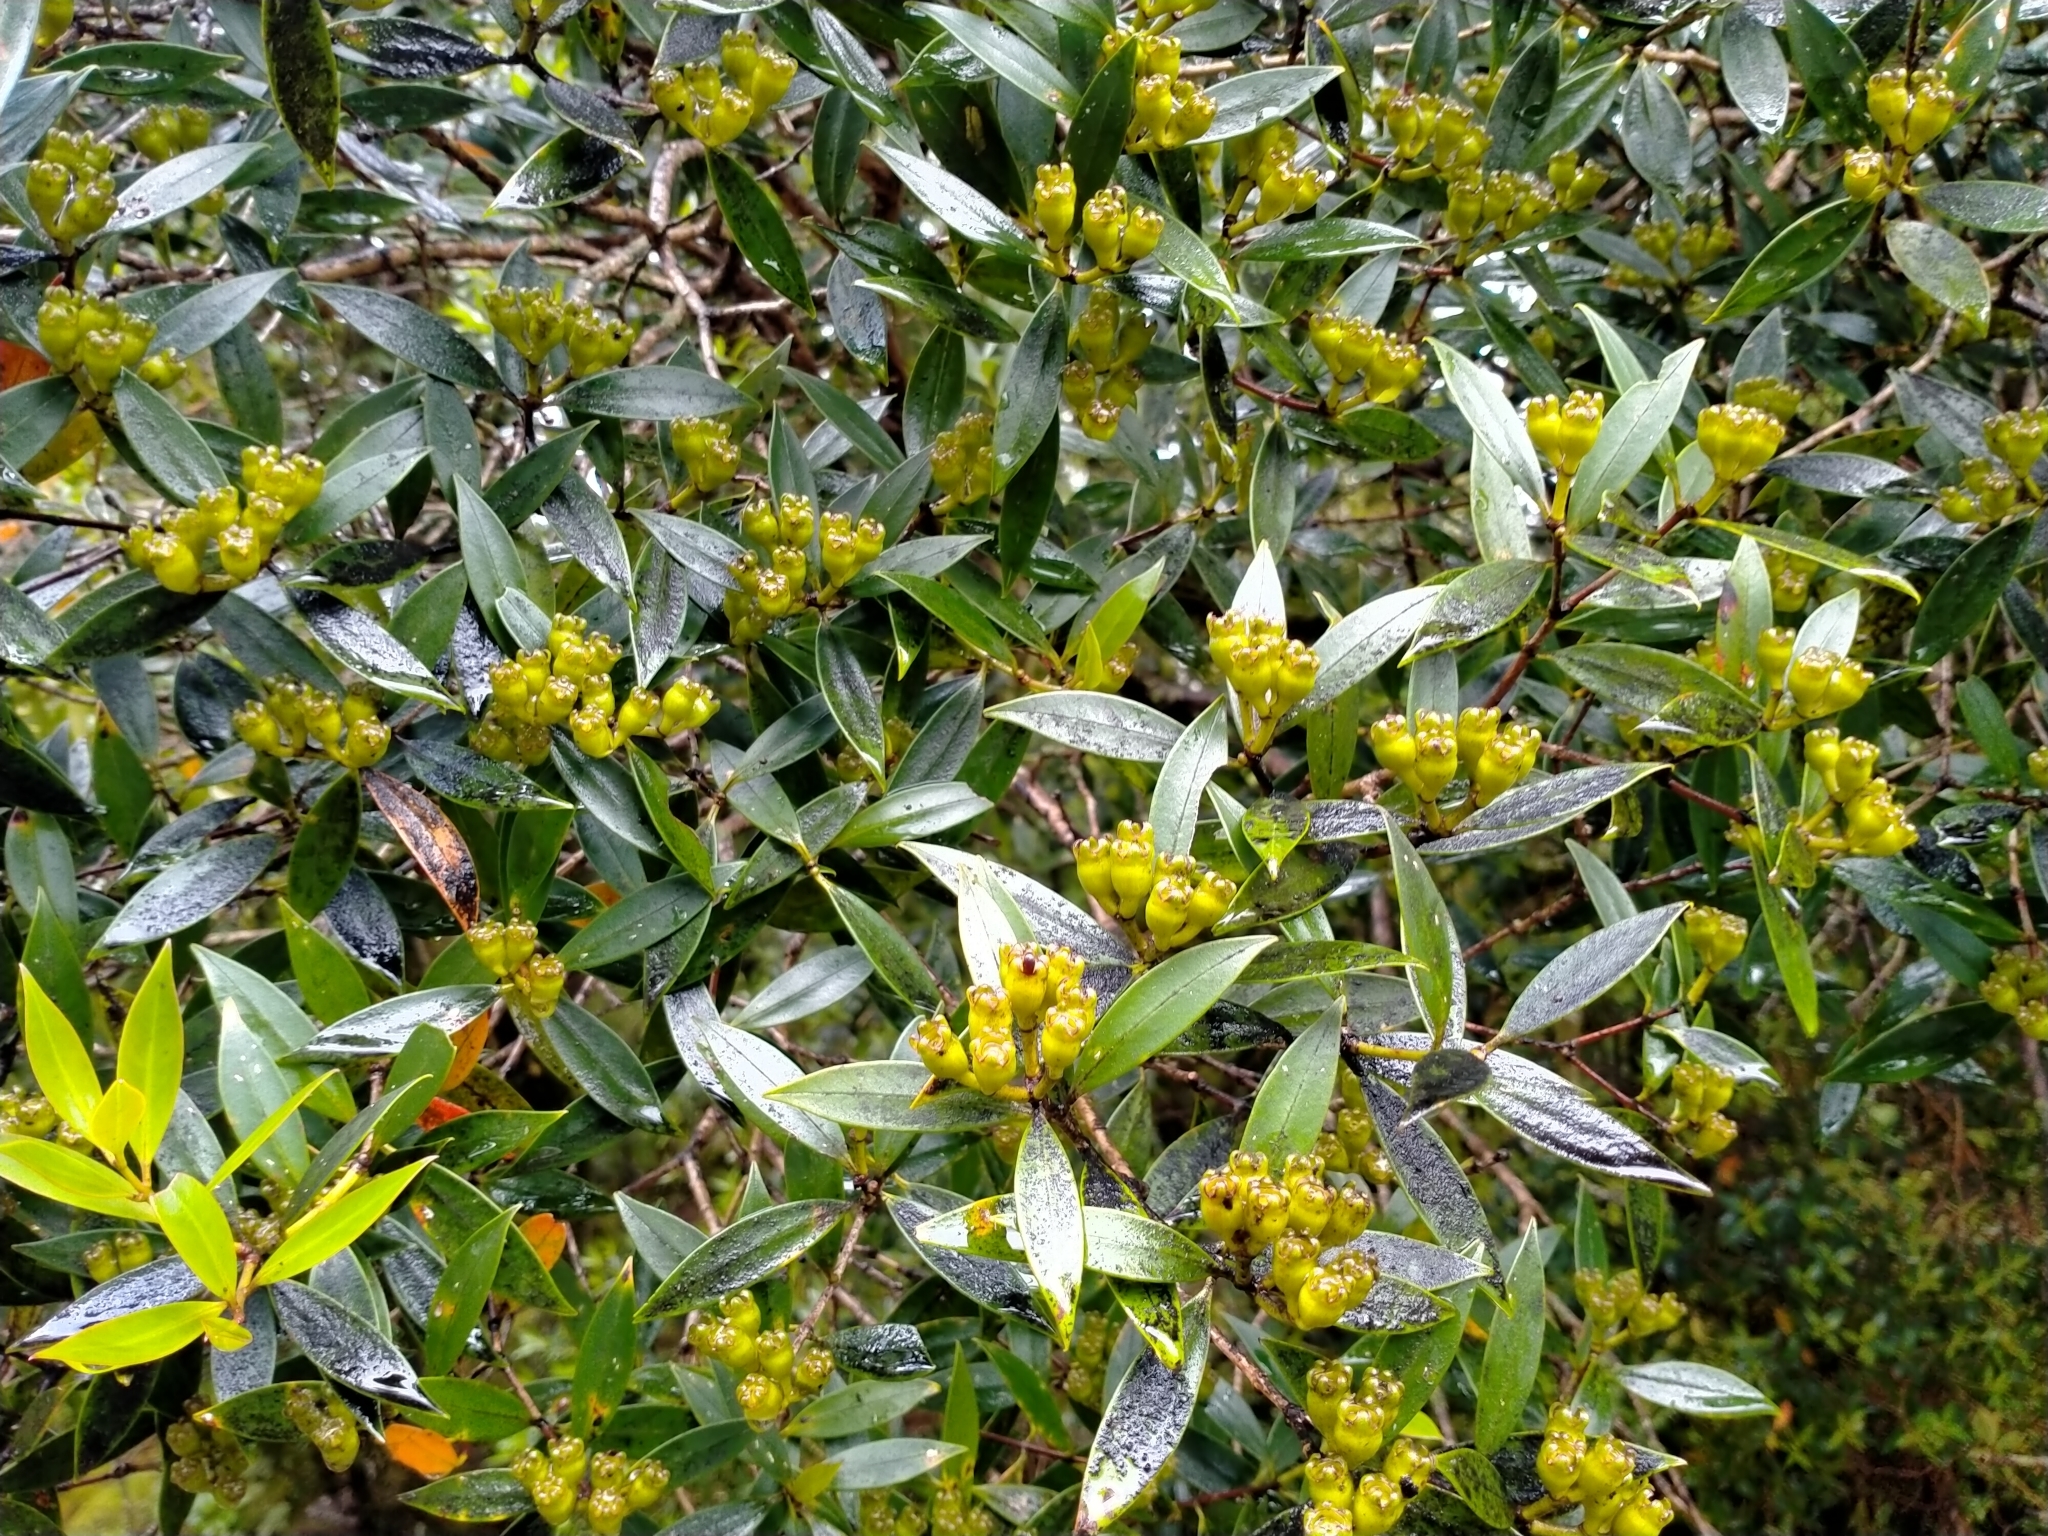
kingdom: Plantae
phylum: Tracheophyta
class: Magnoliopsida
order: Myrtales
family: Myrtaceae
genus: Metrosideros
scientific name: Metrosideros umbellata
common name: Southern rata
